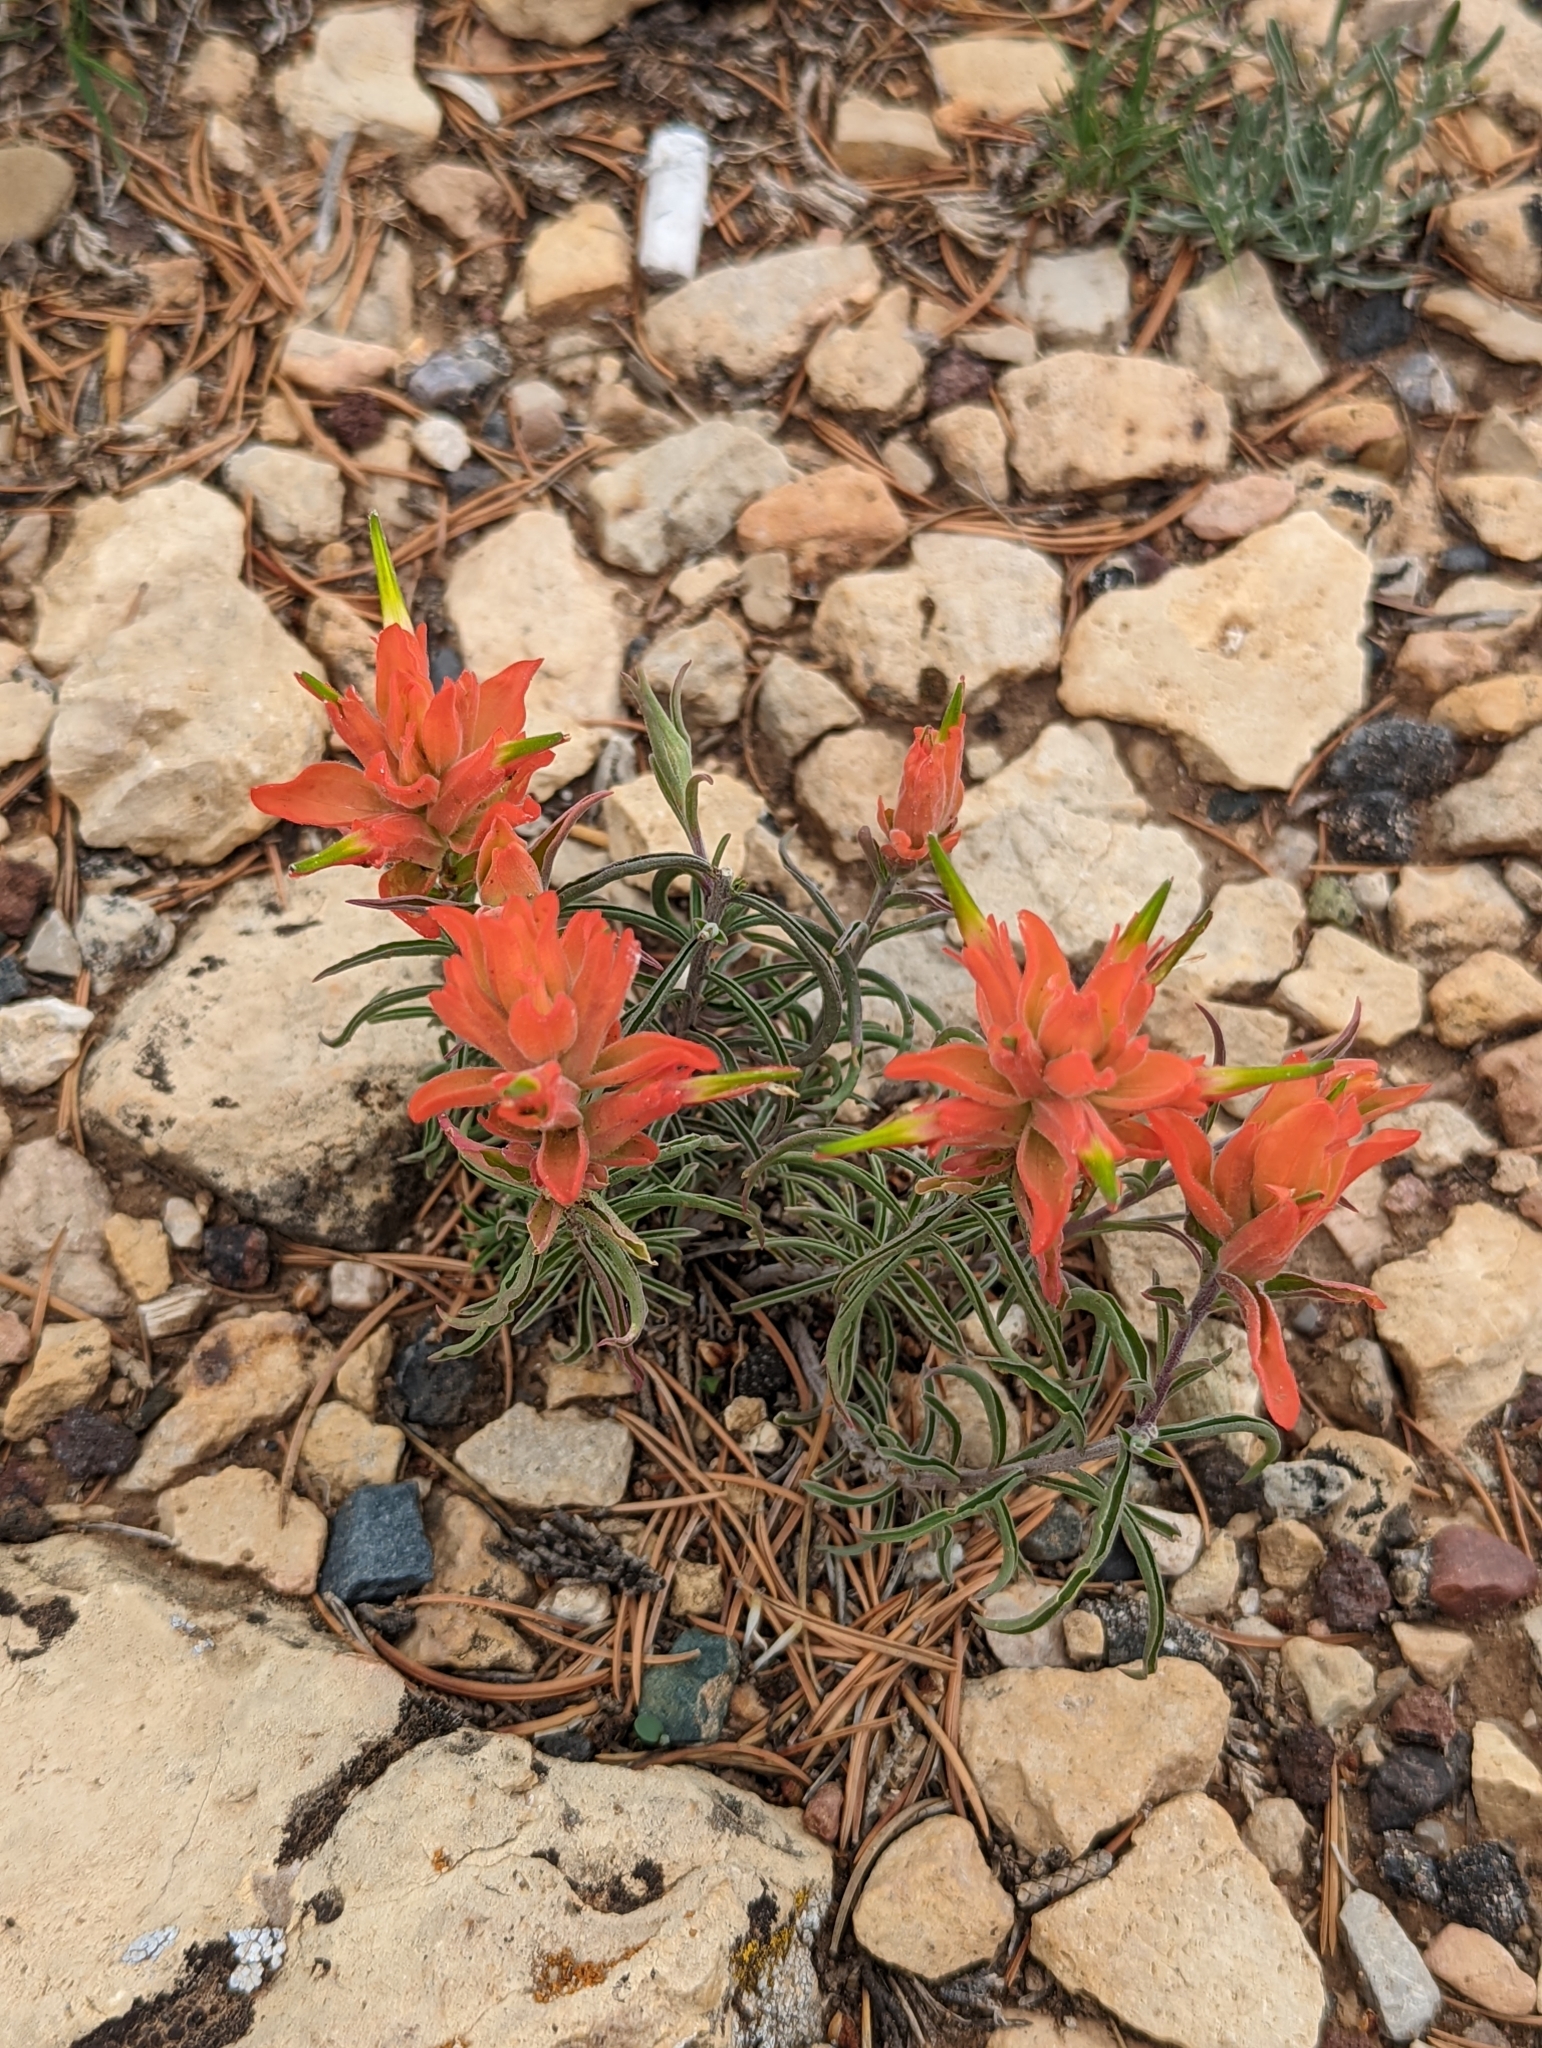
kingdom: Plantae
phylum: Tracheophyta
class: Magnoliopsida
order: Lamiales
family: Orobanchaceae
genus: Castilleja
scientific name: Castilleja integra
